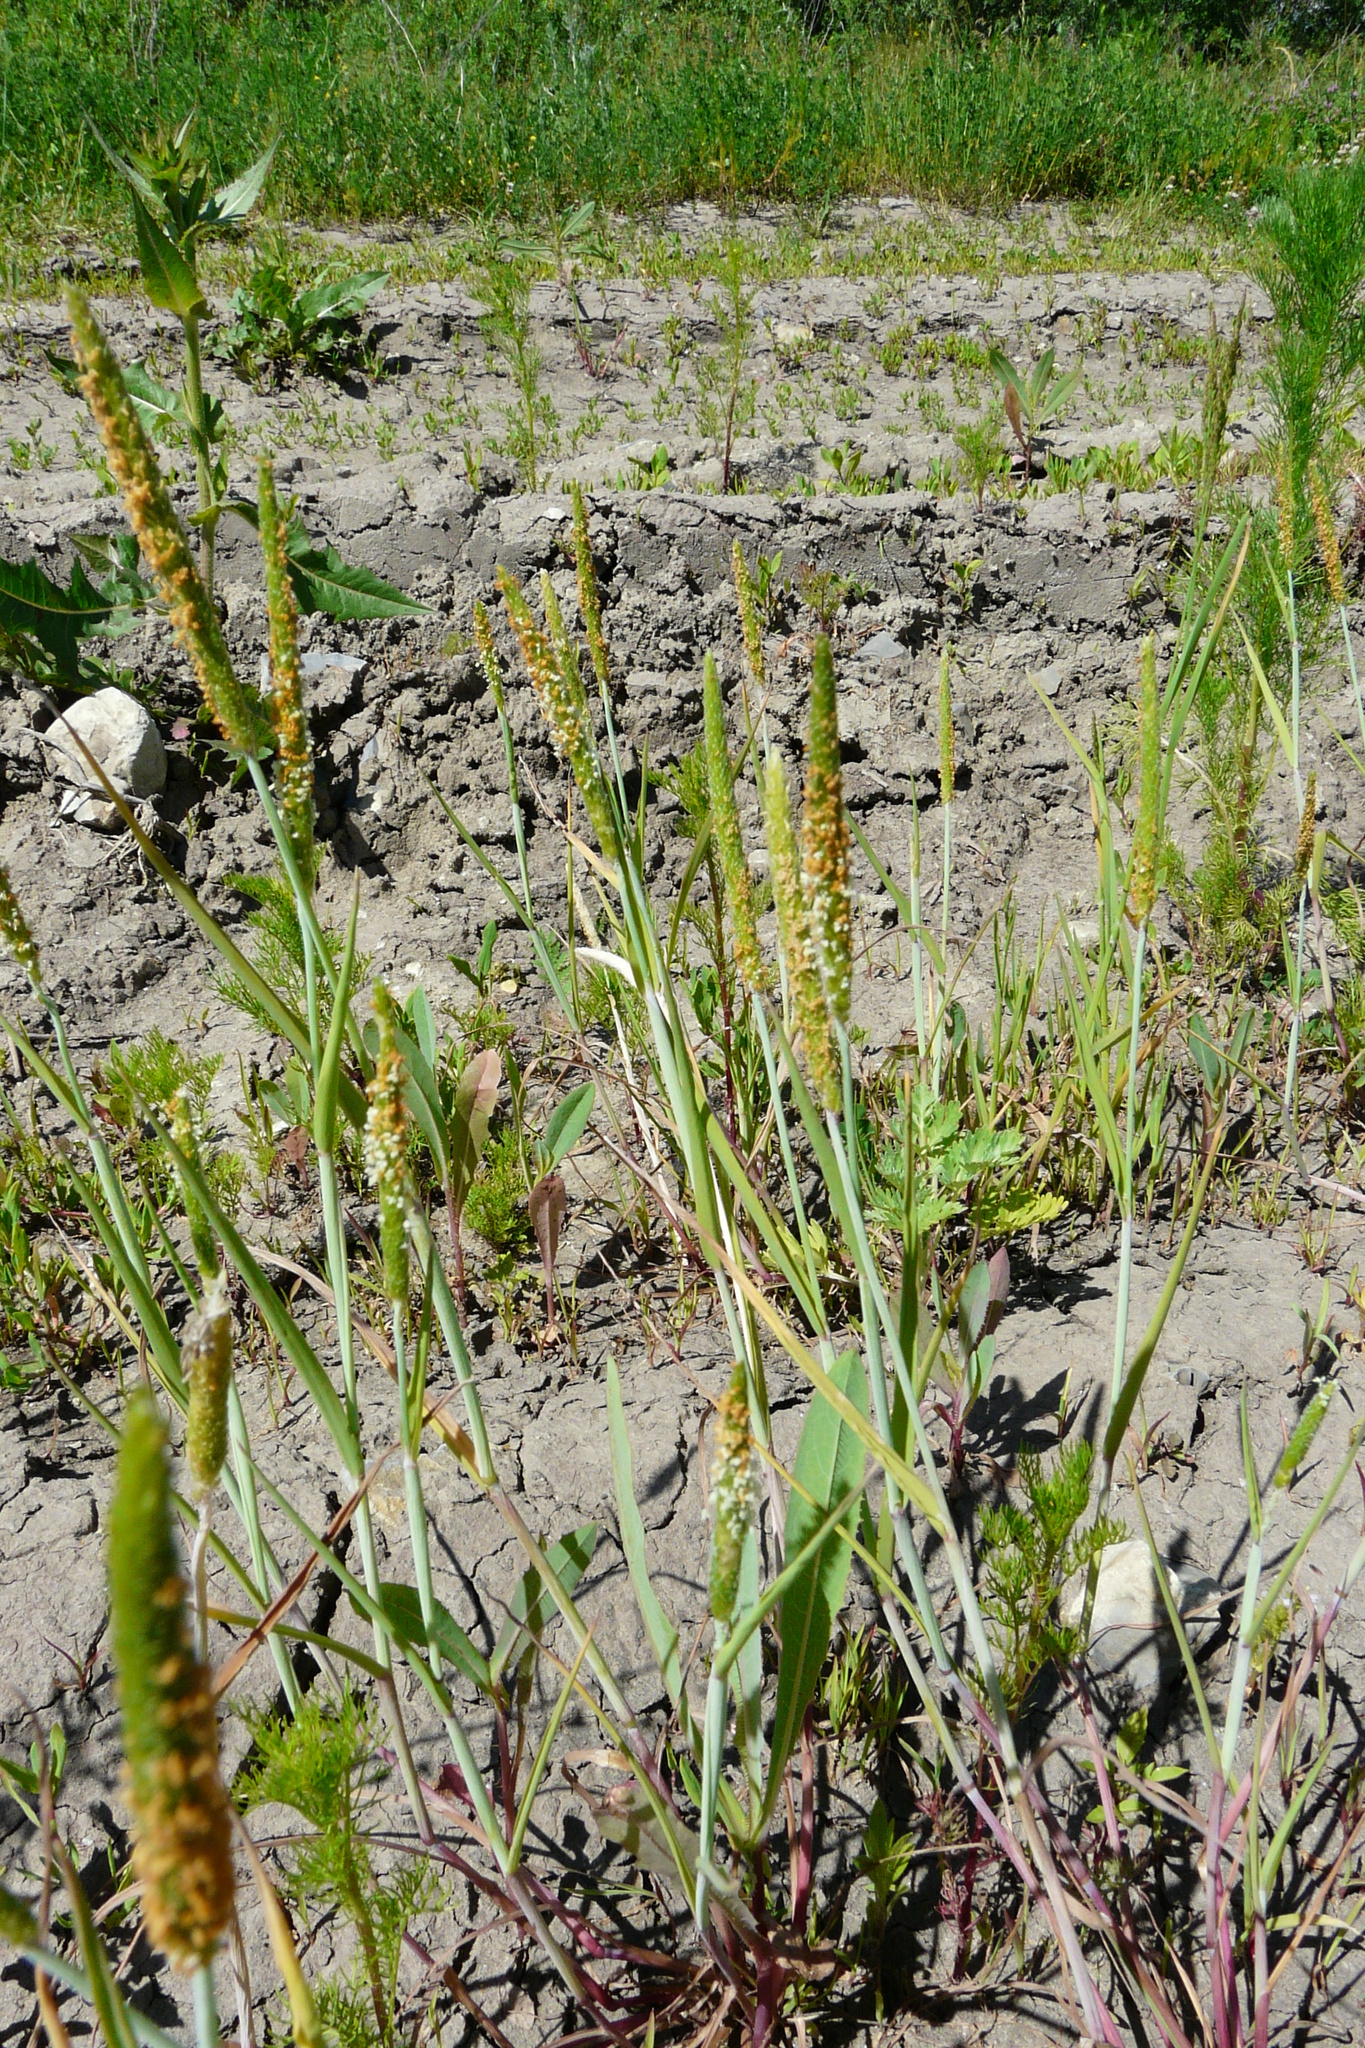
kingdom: Plantae
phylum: Tracheophyta
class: Liliopsida
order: Poales
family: Poaceae
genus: Alopecurus
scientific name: Alopecurus aequalis
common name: Orange foxtail
